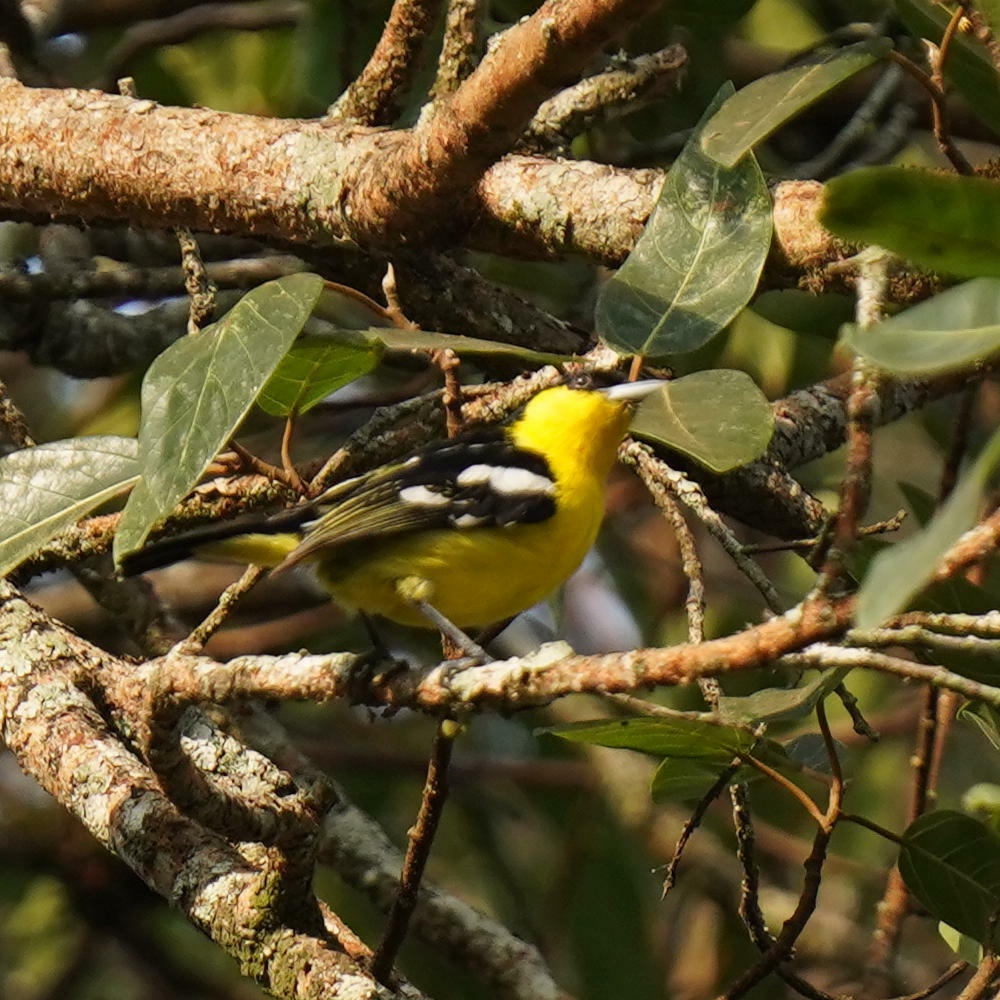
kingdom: Animalia
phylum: Chordata
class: Aves
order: Passeriformes
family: Aegithinidae
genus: Aegithina
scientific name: Aegithina tiphia
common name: Common iora
